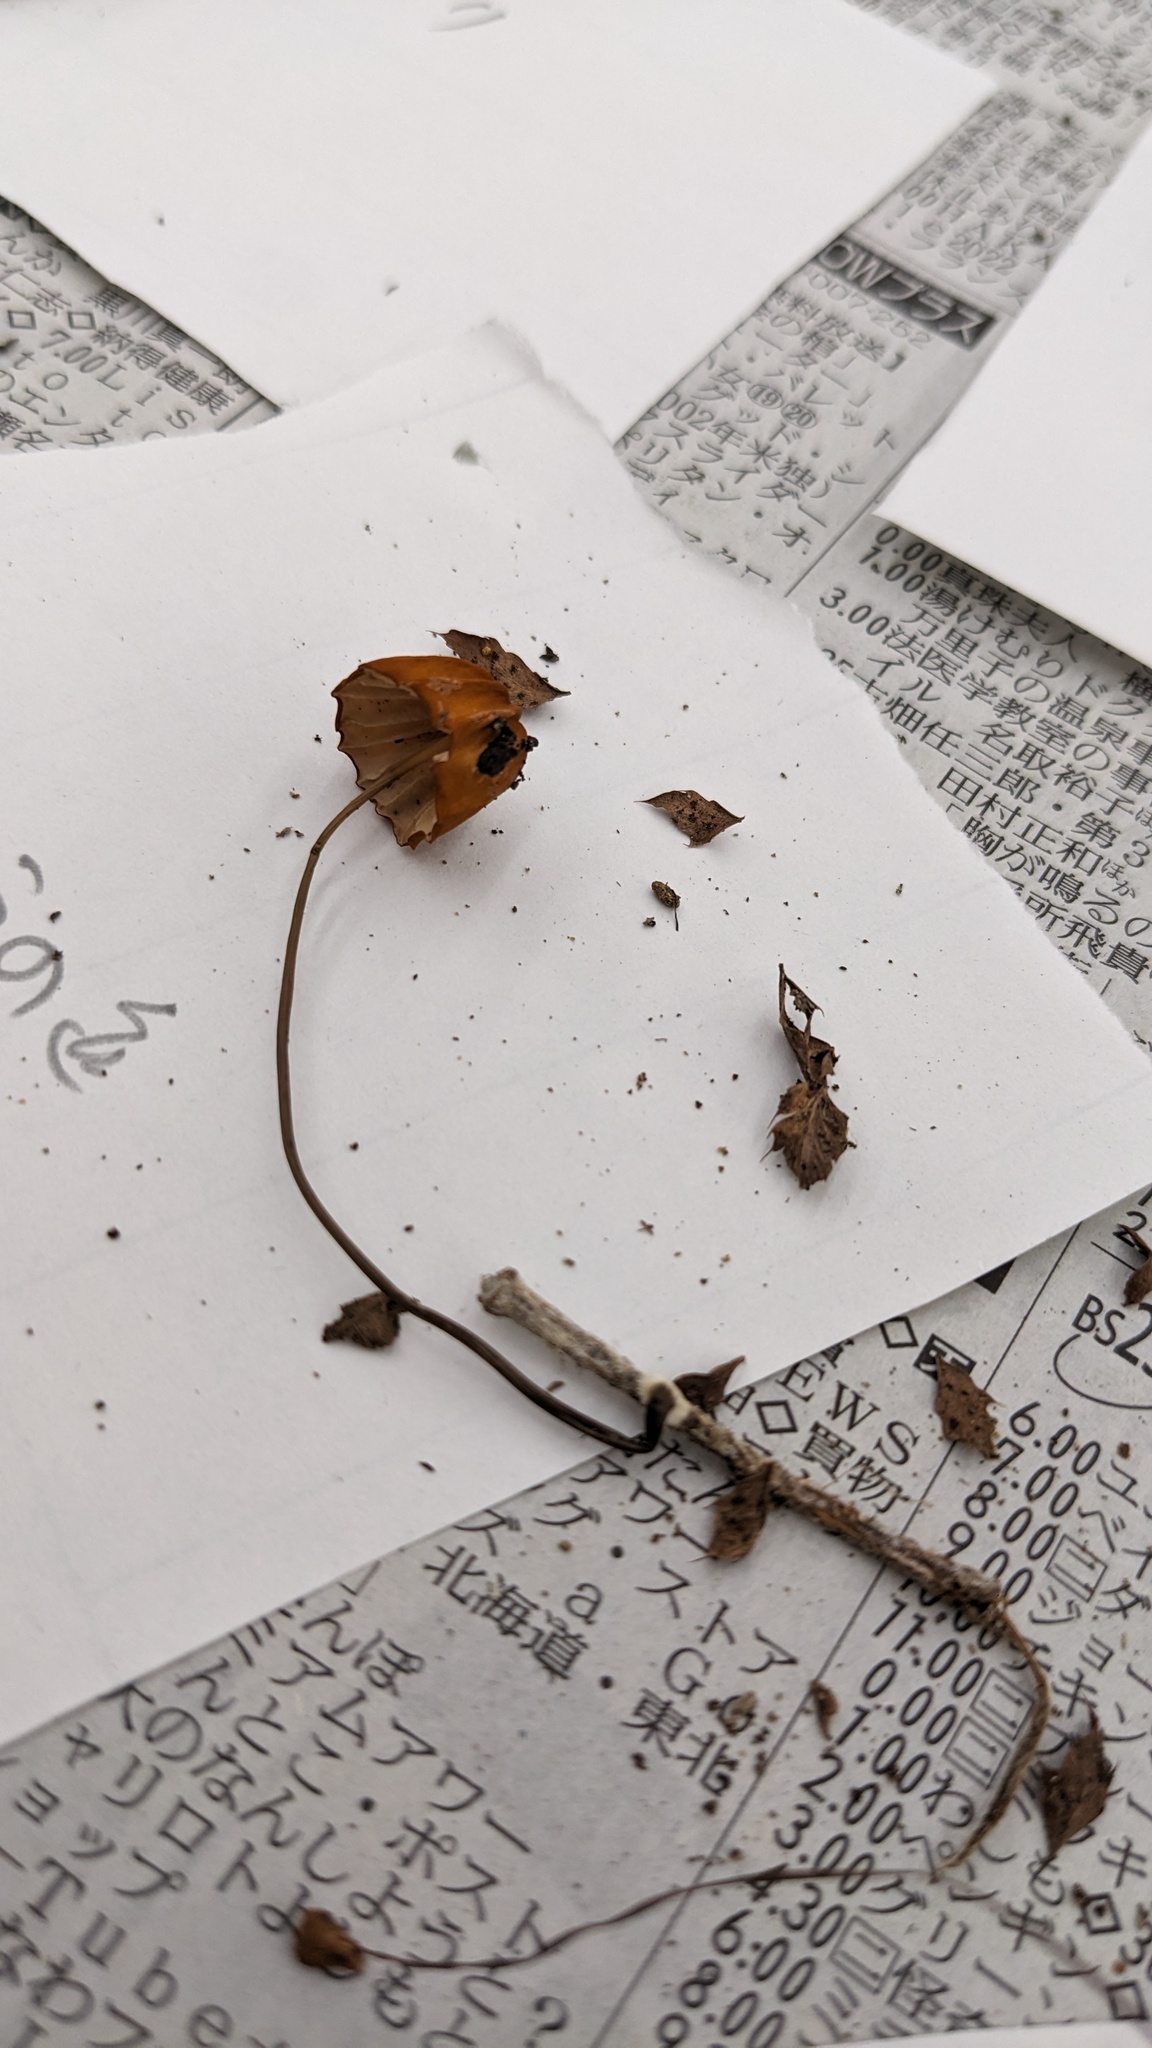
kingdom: Fungi
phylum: Basidiomycota
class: Agaricomycetes
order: Agaricales
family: Marasmiaceae
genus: Marasmius
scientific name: Marasmius siccus
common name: Orange pinwheel
